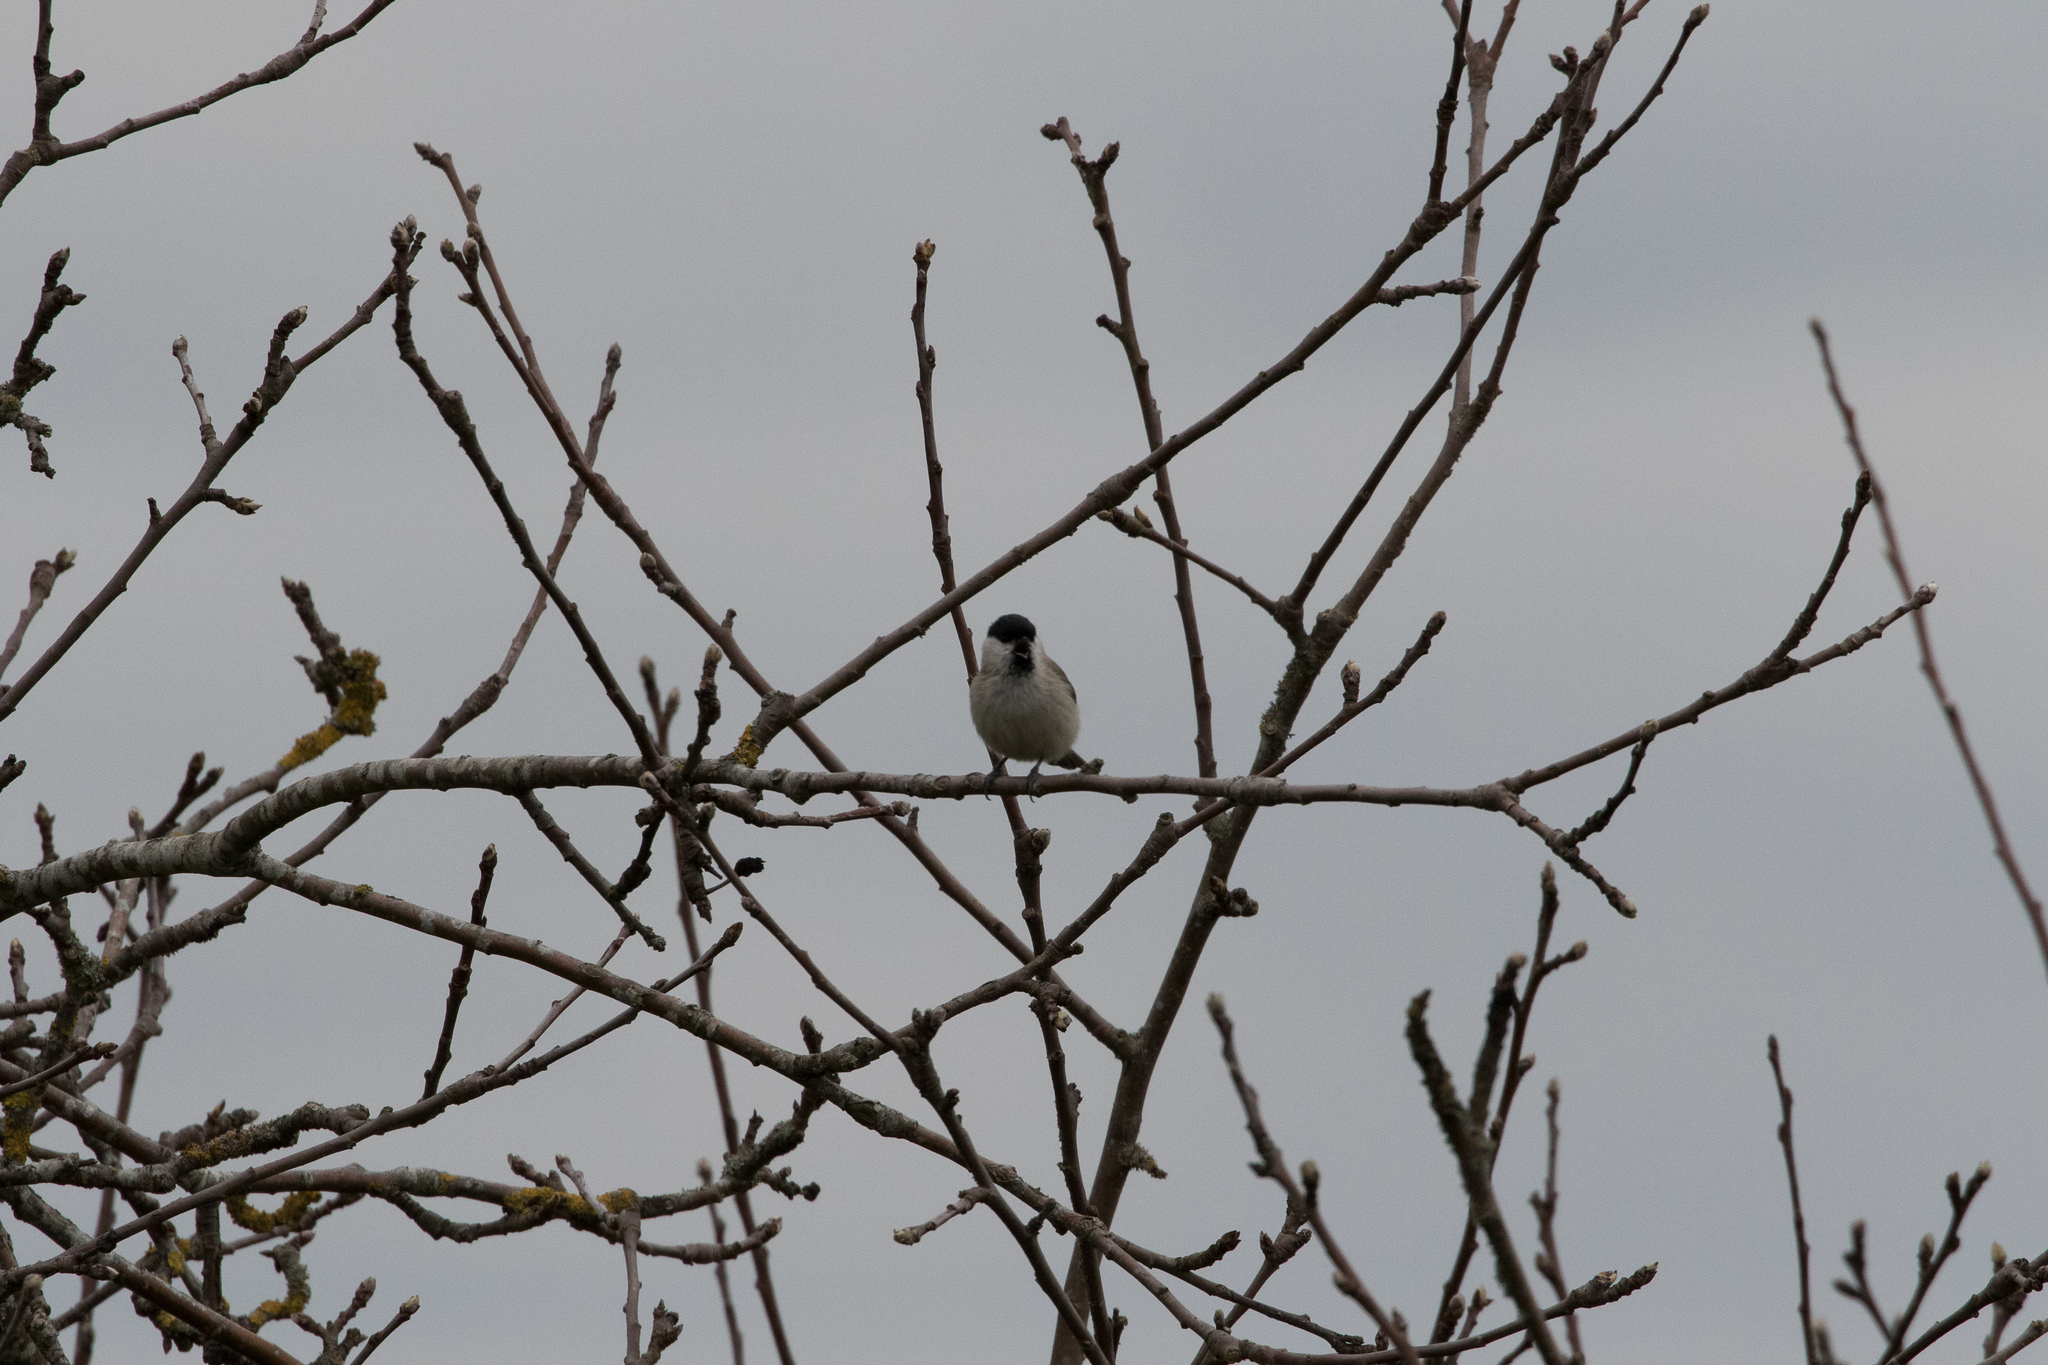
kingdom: Animalia
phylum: Chordata
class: Aves
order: Passeriformes
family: Paridae
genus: Poecile
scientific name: Poecile palustris
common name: Marsh tit
